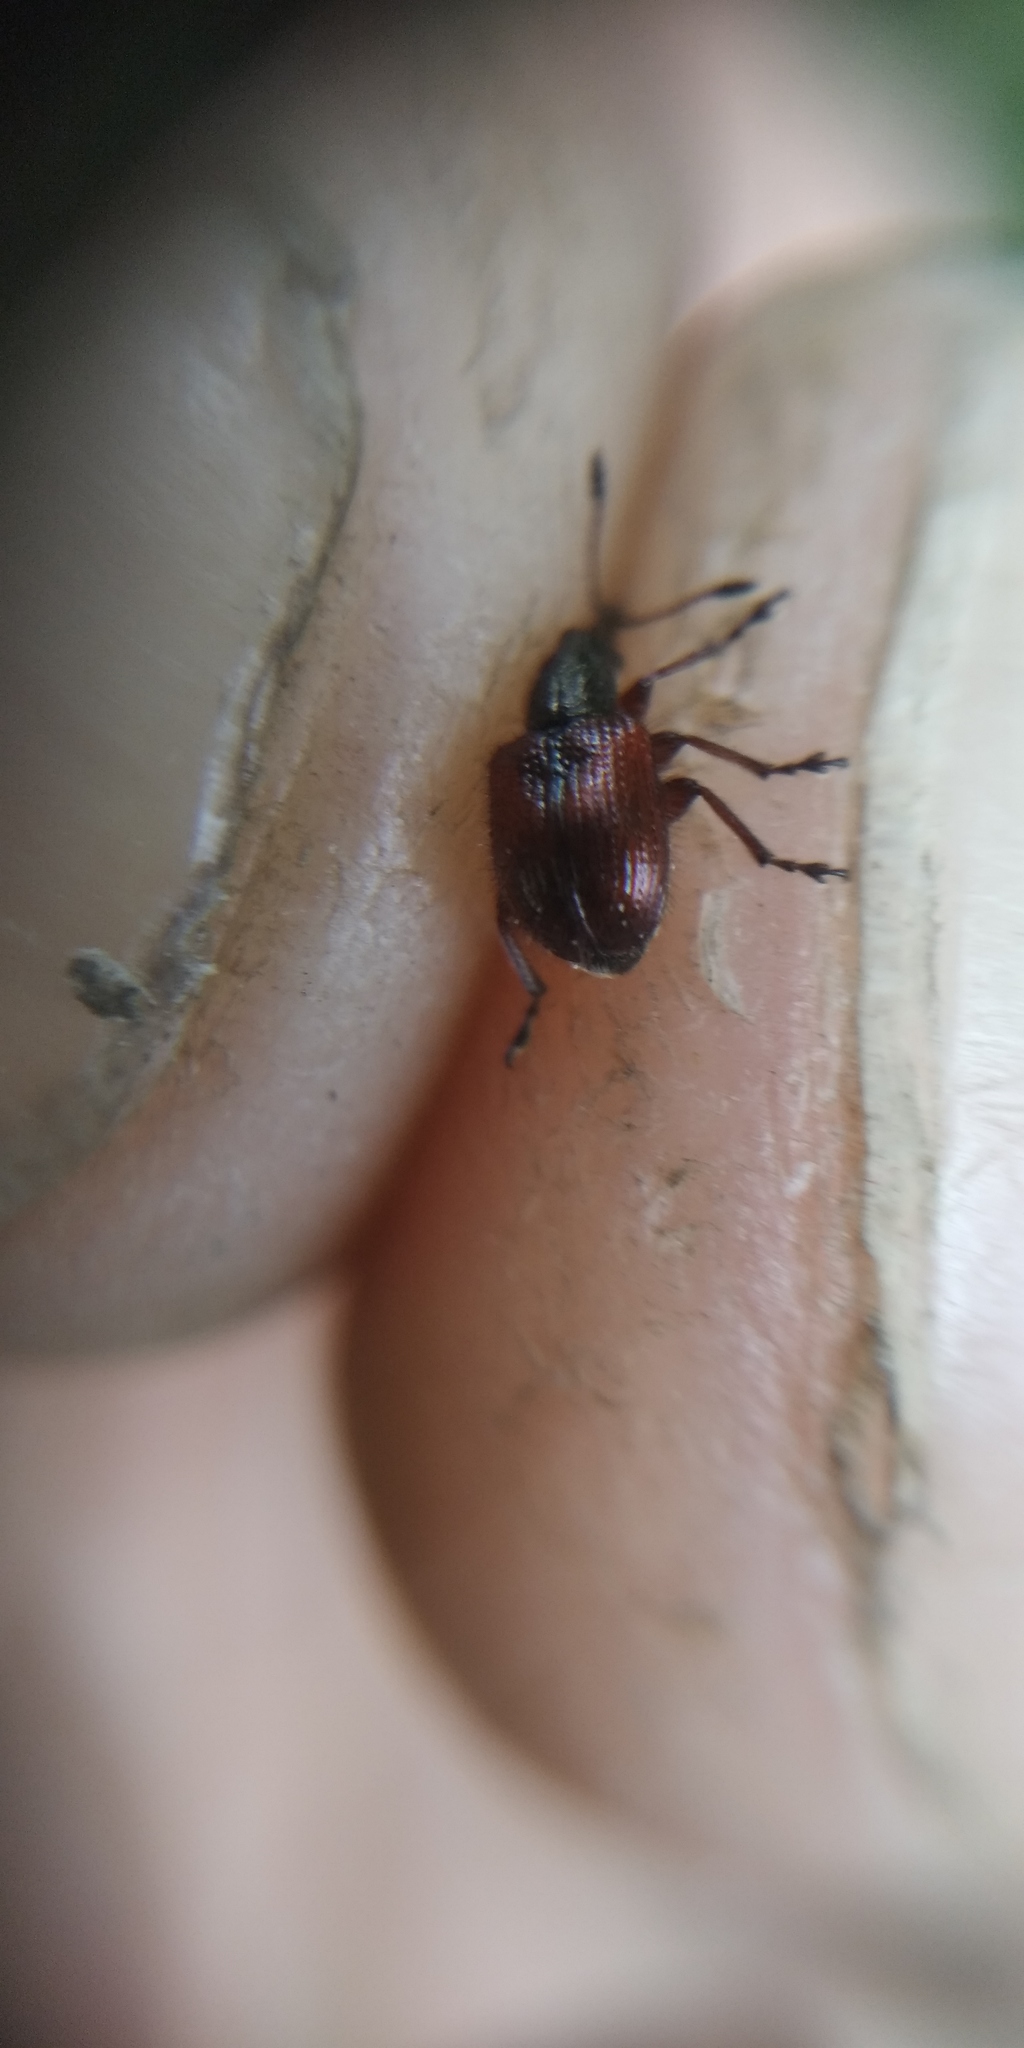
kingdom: Animalia
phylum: Arthropoda
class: Insecta
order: Coleoptera
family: Rhynchitidae
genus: Tatianaerhynchites
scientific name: Tatianaerhynchites aequatus
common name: Apple fruit rhynchites
